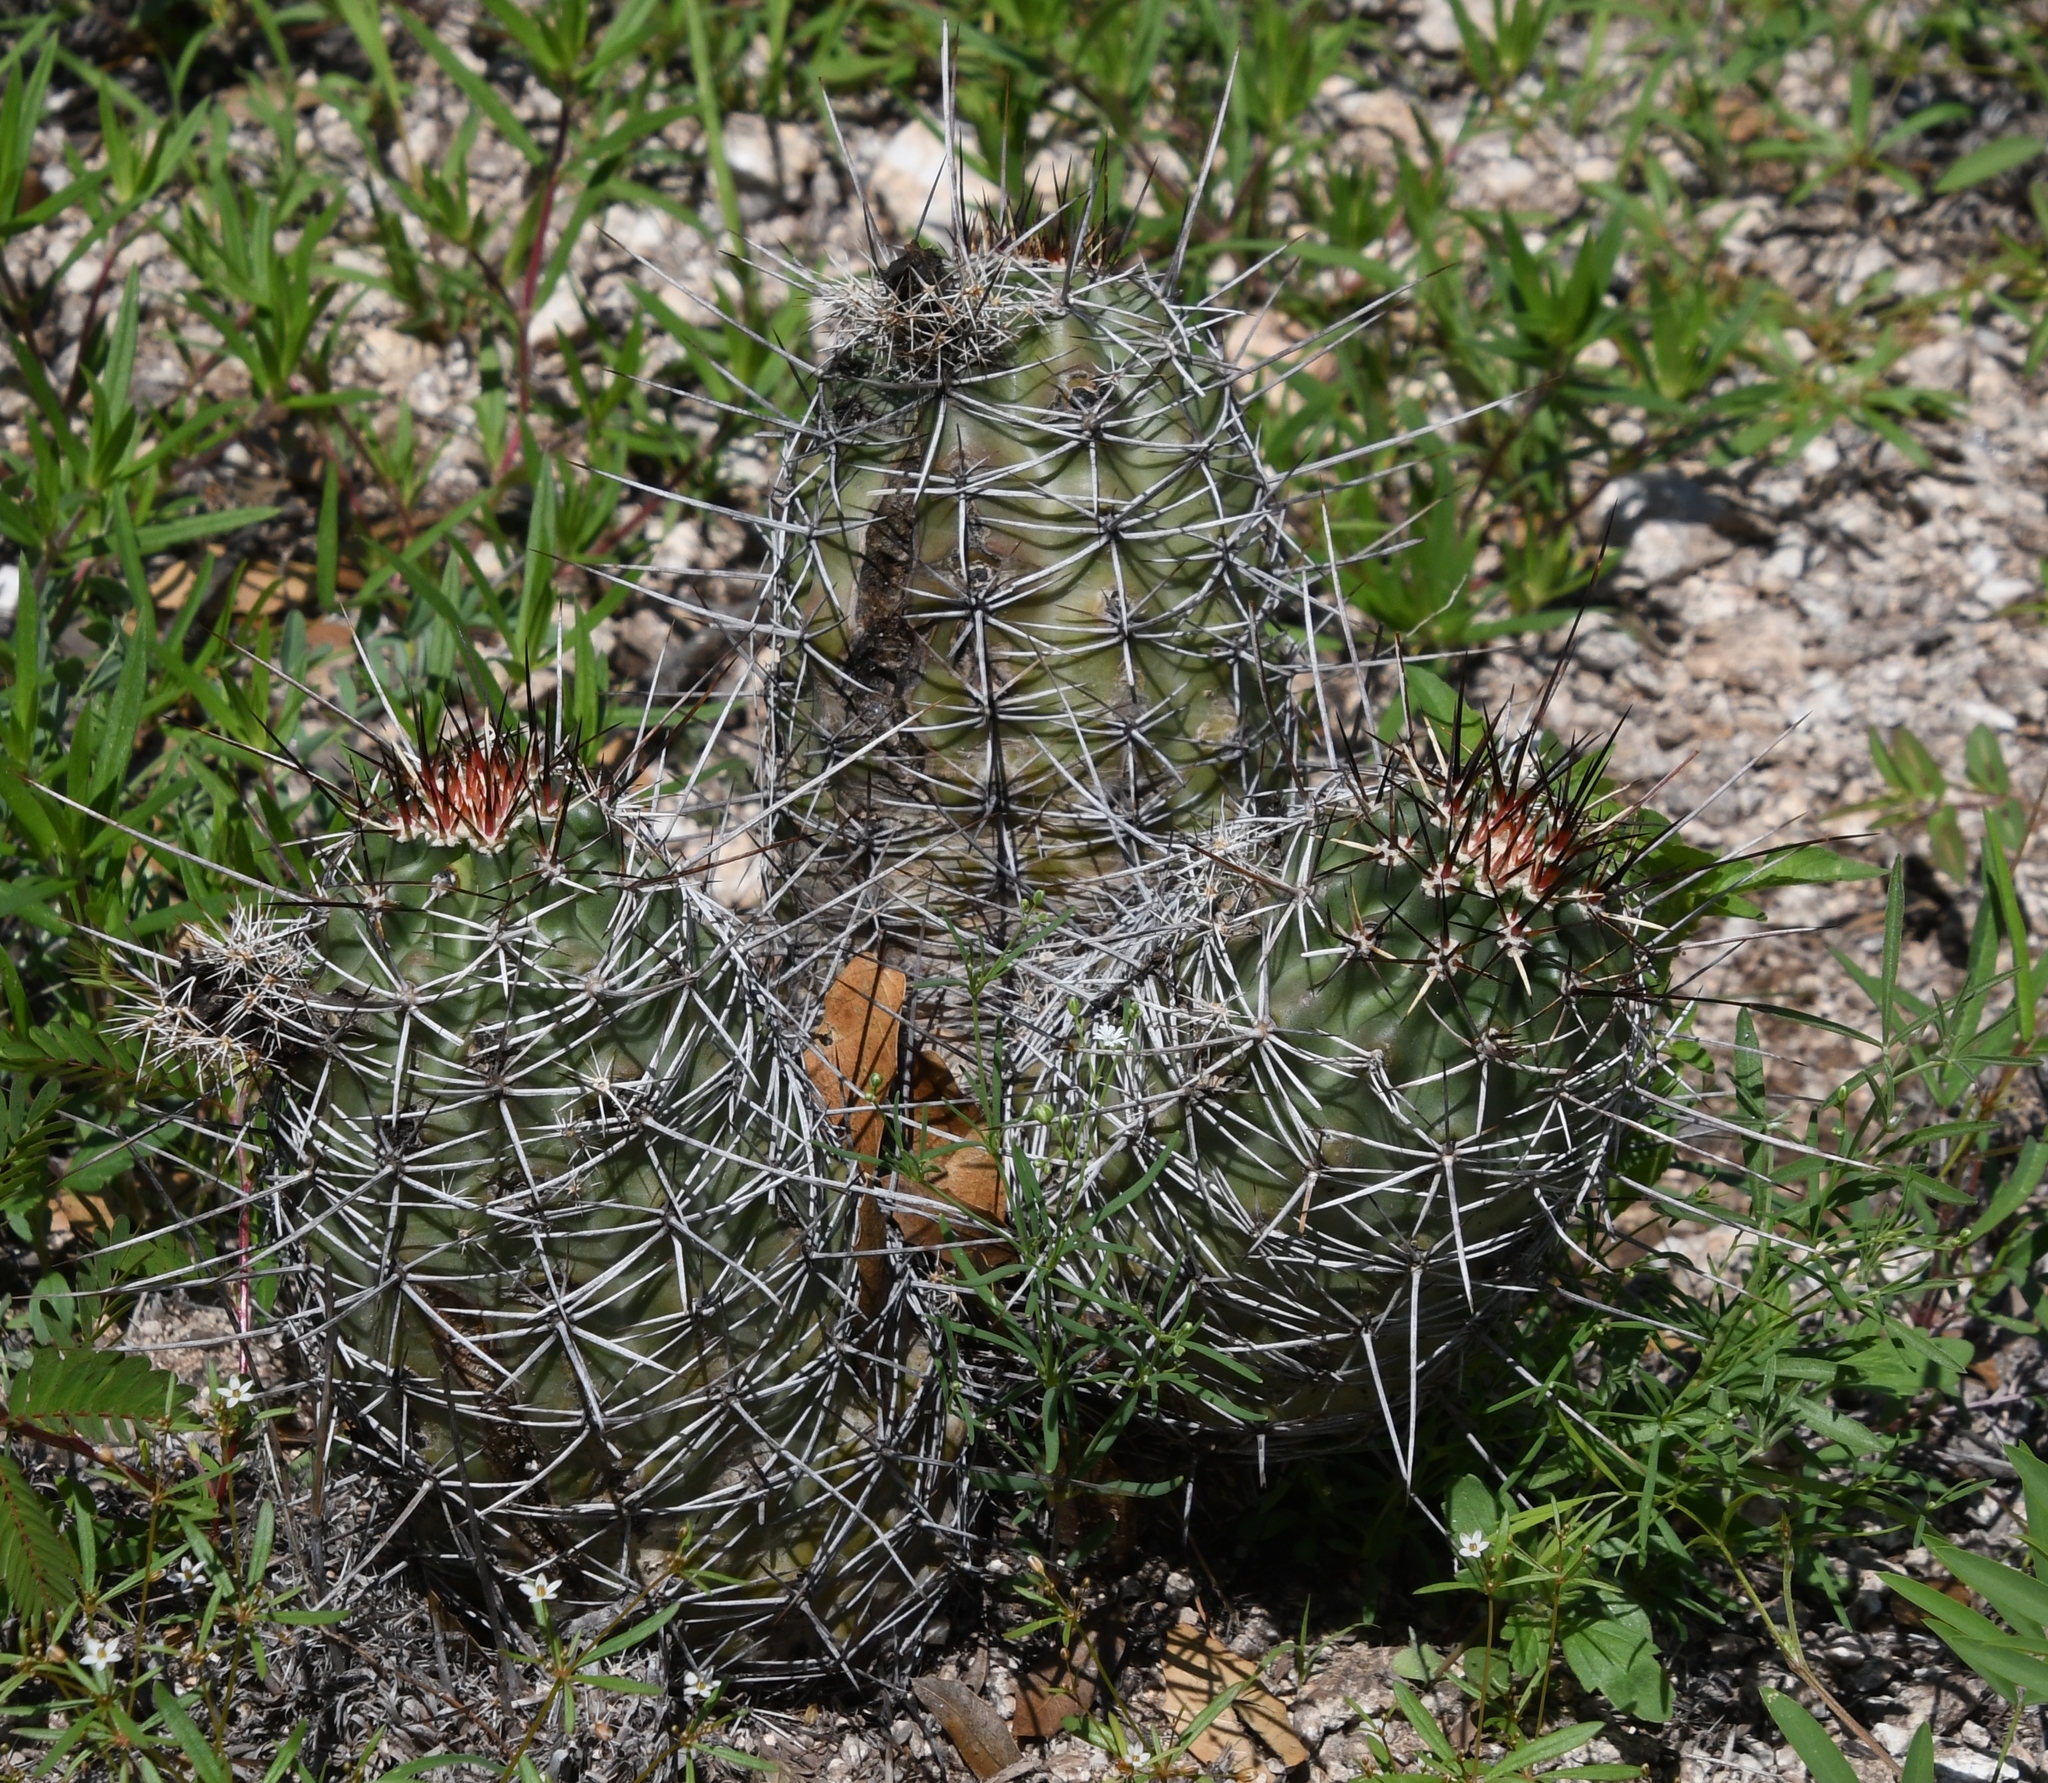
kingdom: Plantae
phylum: Tracheophyta
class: Magnoliopsida
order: Caryophyllales
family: Cactaceae
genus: Echinocereus
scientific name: Echinocereus fendleri
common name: Fendler's hedgehog cactus
